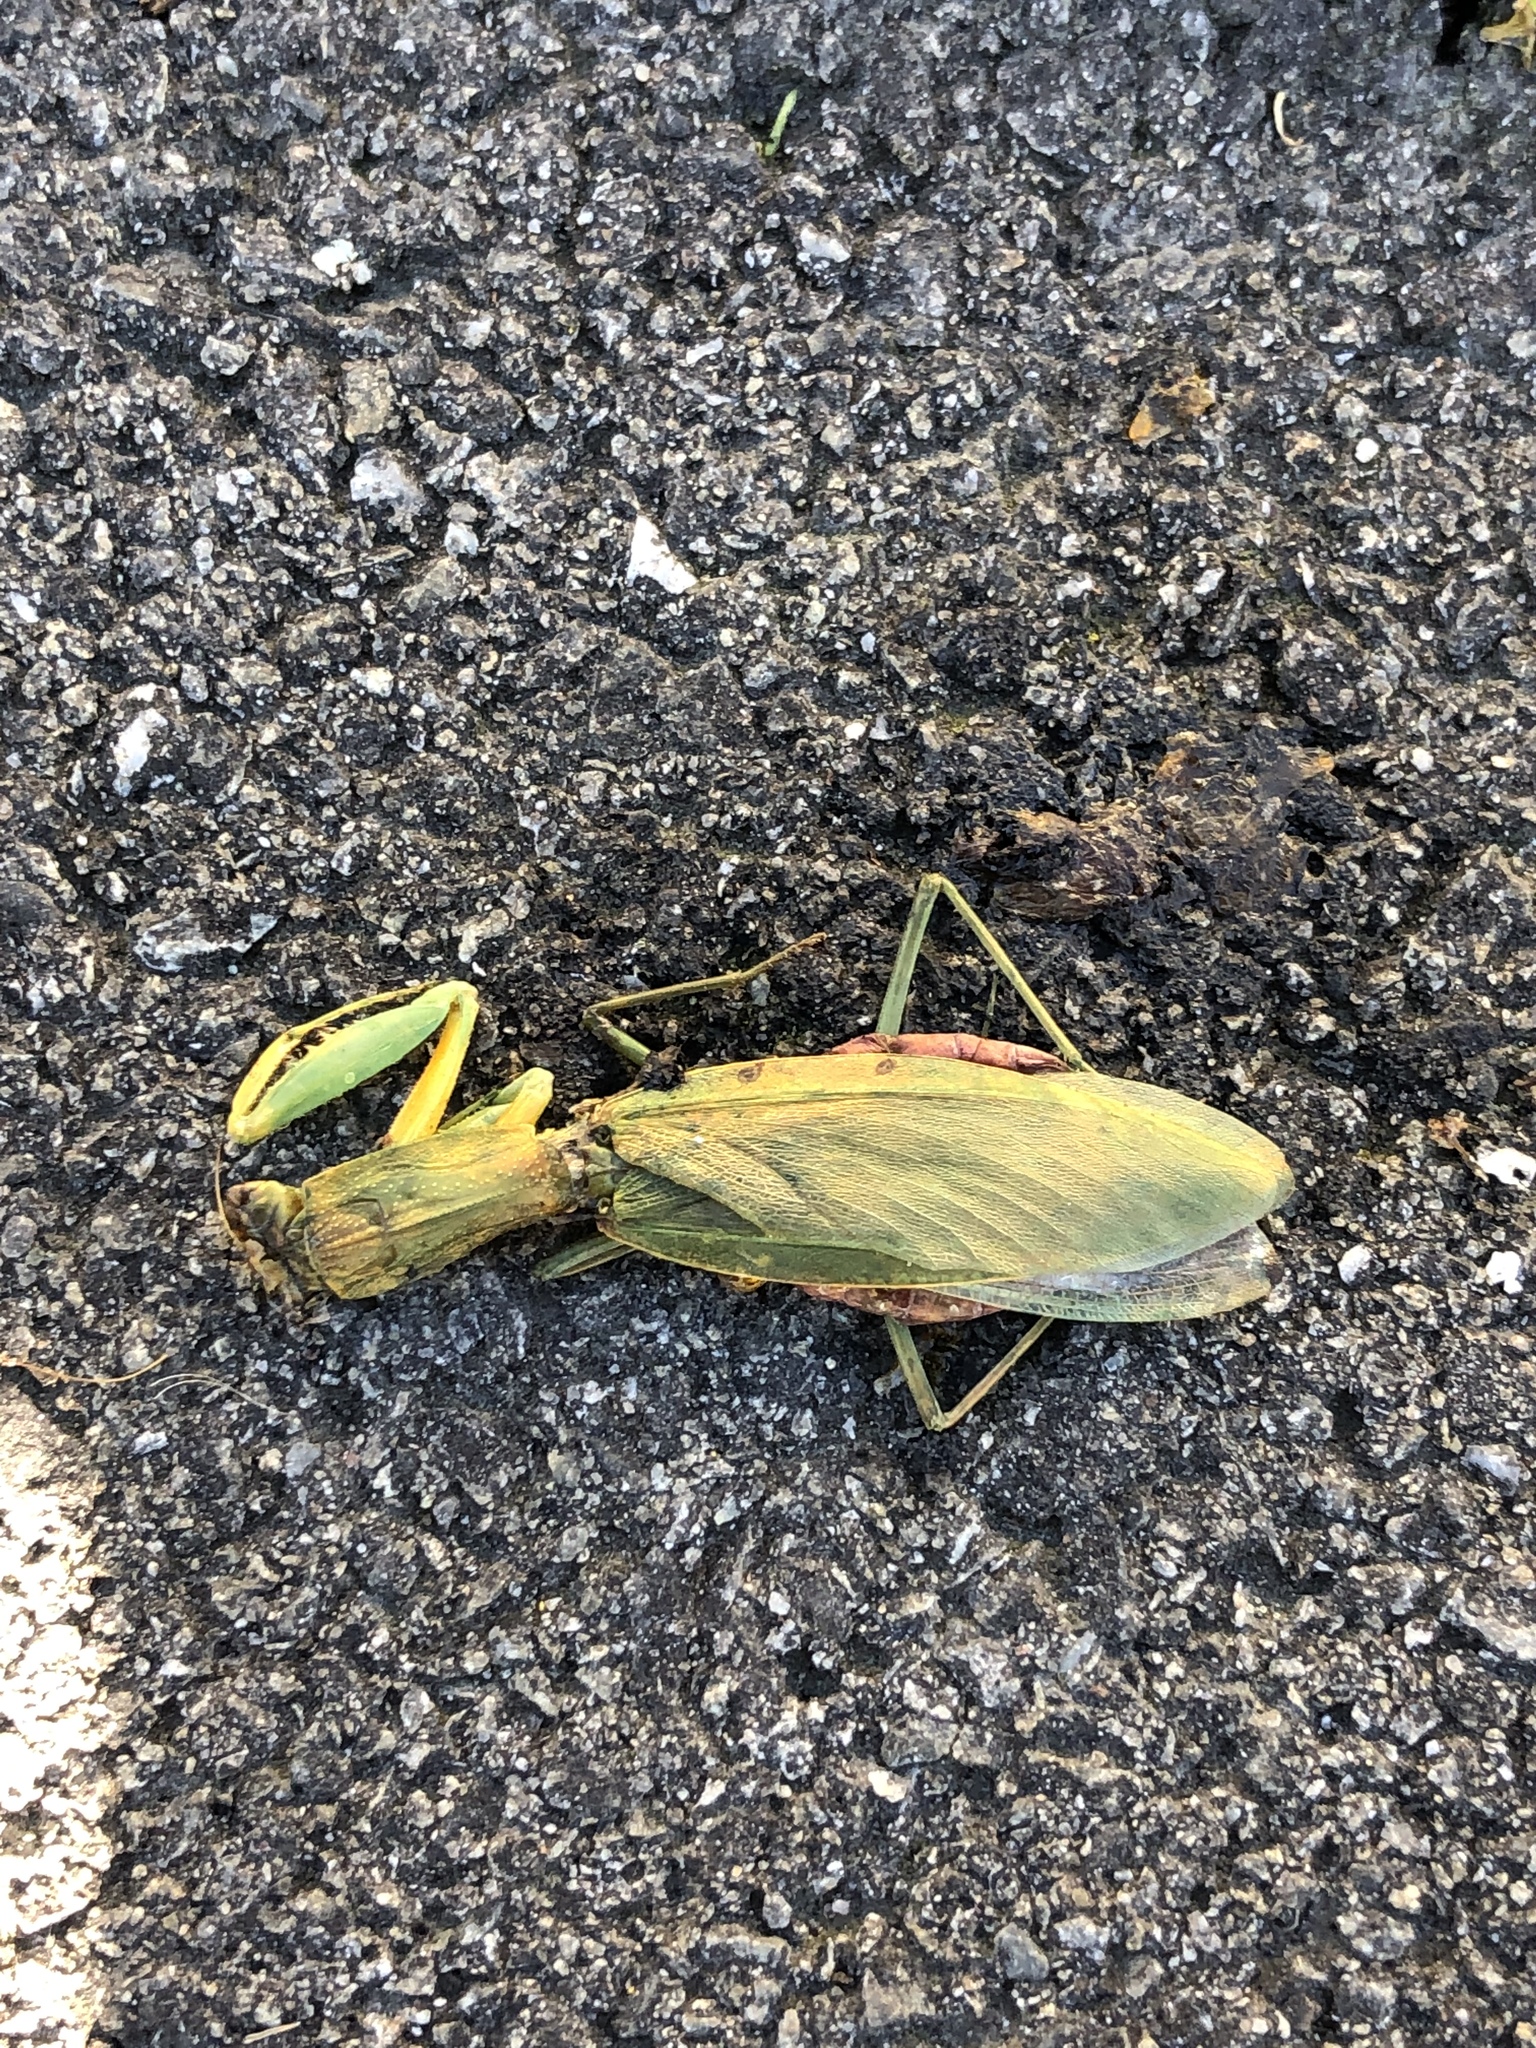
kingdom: Animalia
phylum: Arthropoda
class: Insecta
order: Mantodea
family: Mantidae
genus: Orthodera
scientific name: Orthodera novaezealandiae
